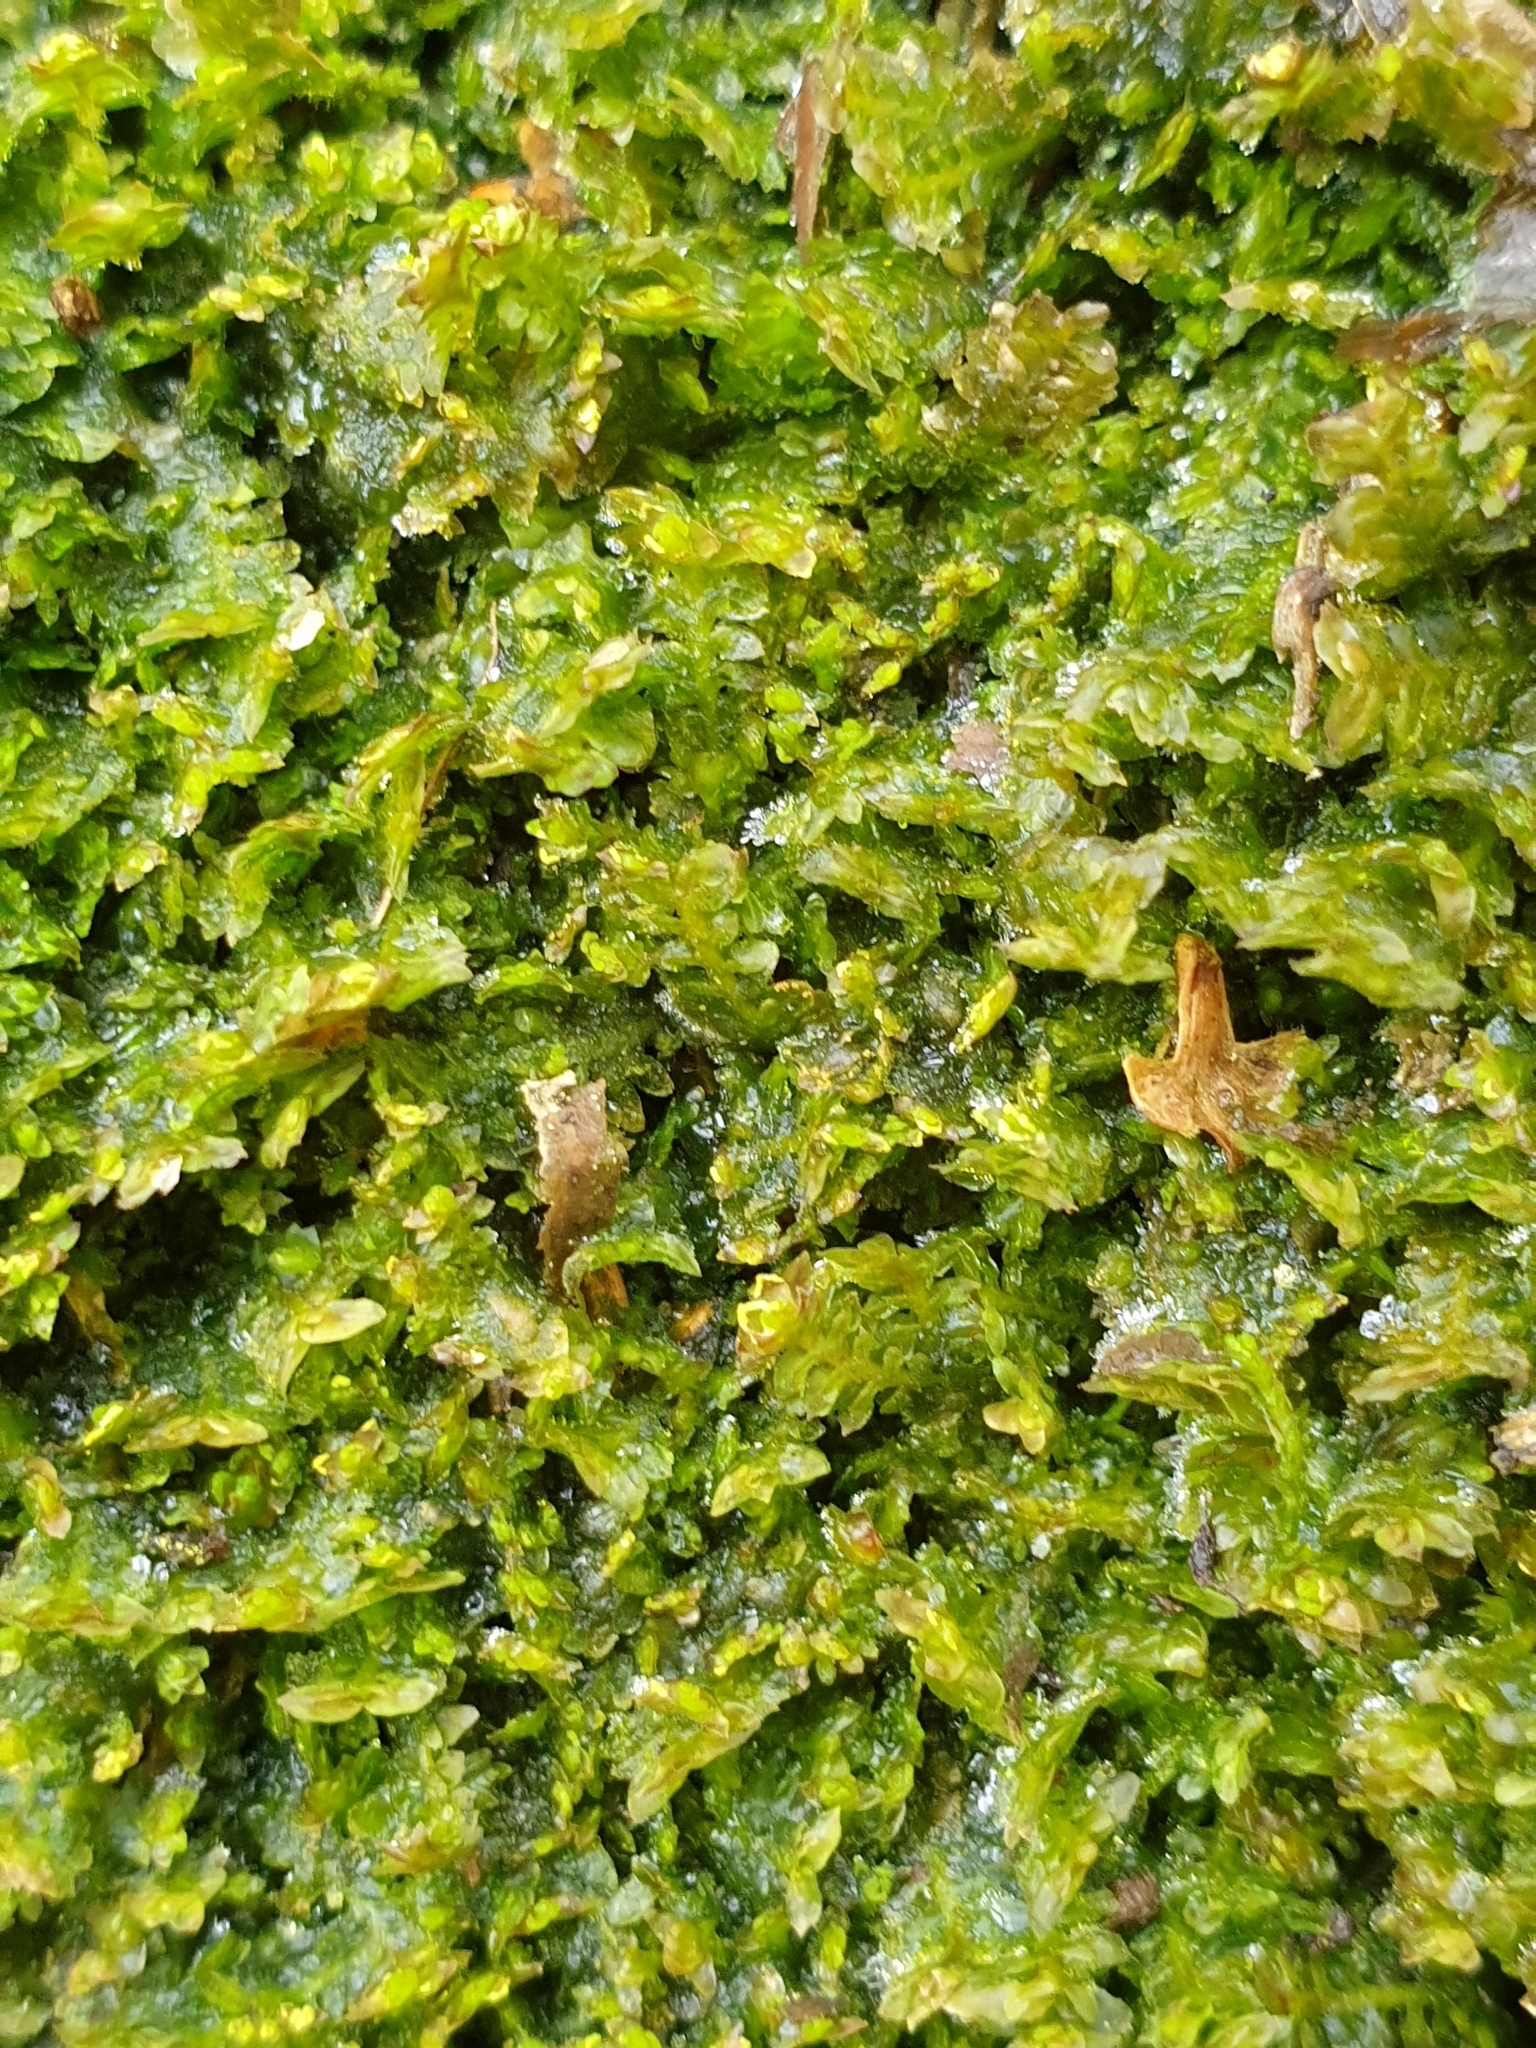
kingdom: Plantae
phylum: Marchantiophyta
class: Jungermanniopsida
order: Jungermanniales
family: Scapaniaceae
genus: Diplophyllum
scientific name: Diplophyllum albicans
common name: White earwort
